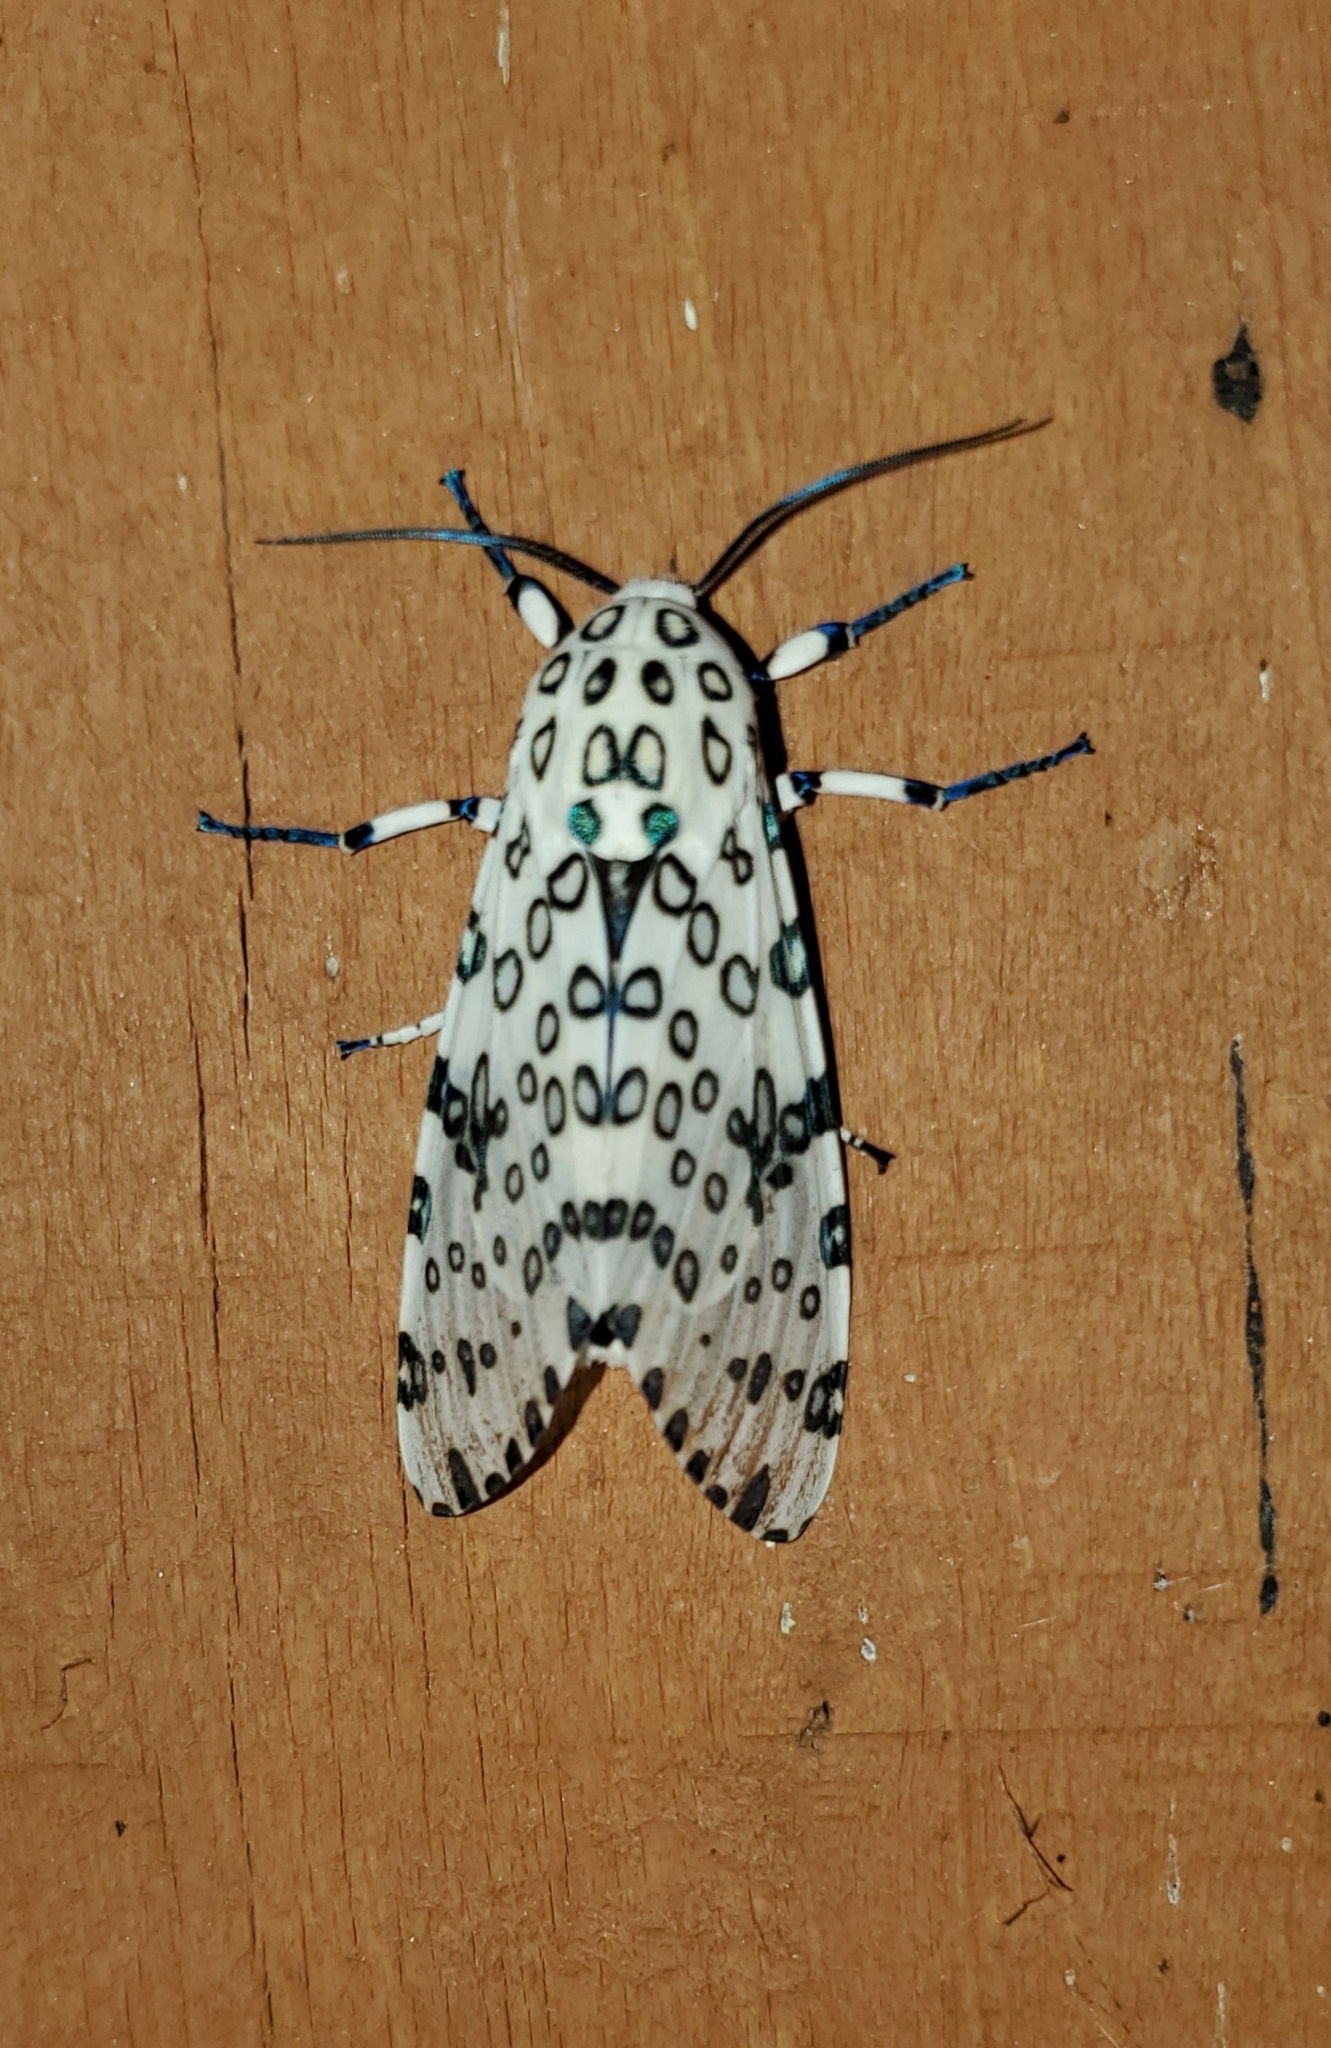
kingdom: Animalia
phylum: Arthropoda
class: Insecta
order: Lepidoptera
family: Erebidae
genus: Hypercompe
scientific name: Hypercompe scribonia
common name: Giant leopard moth
